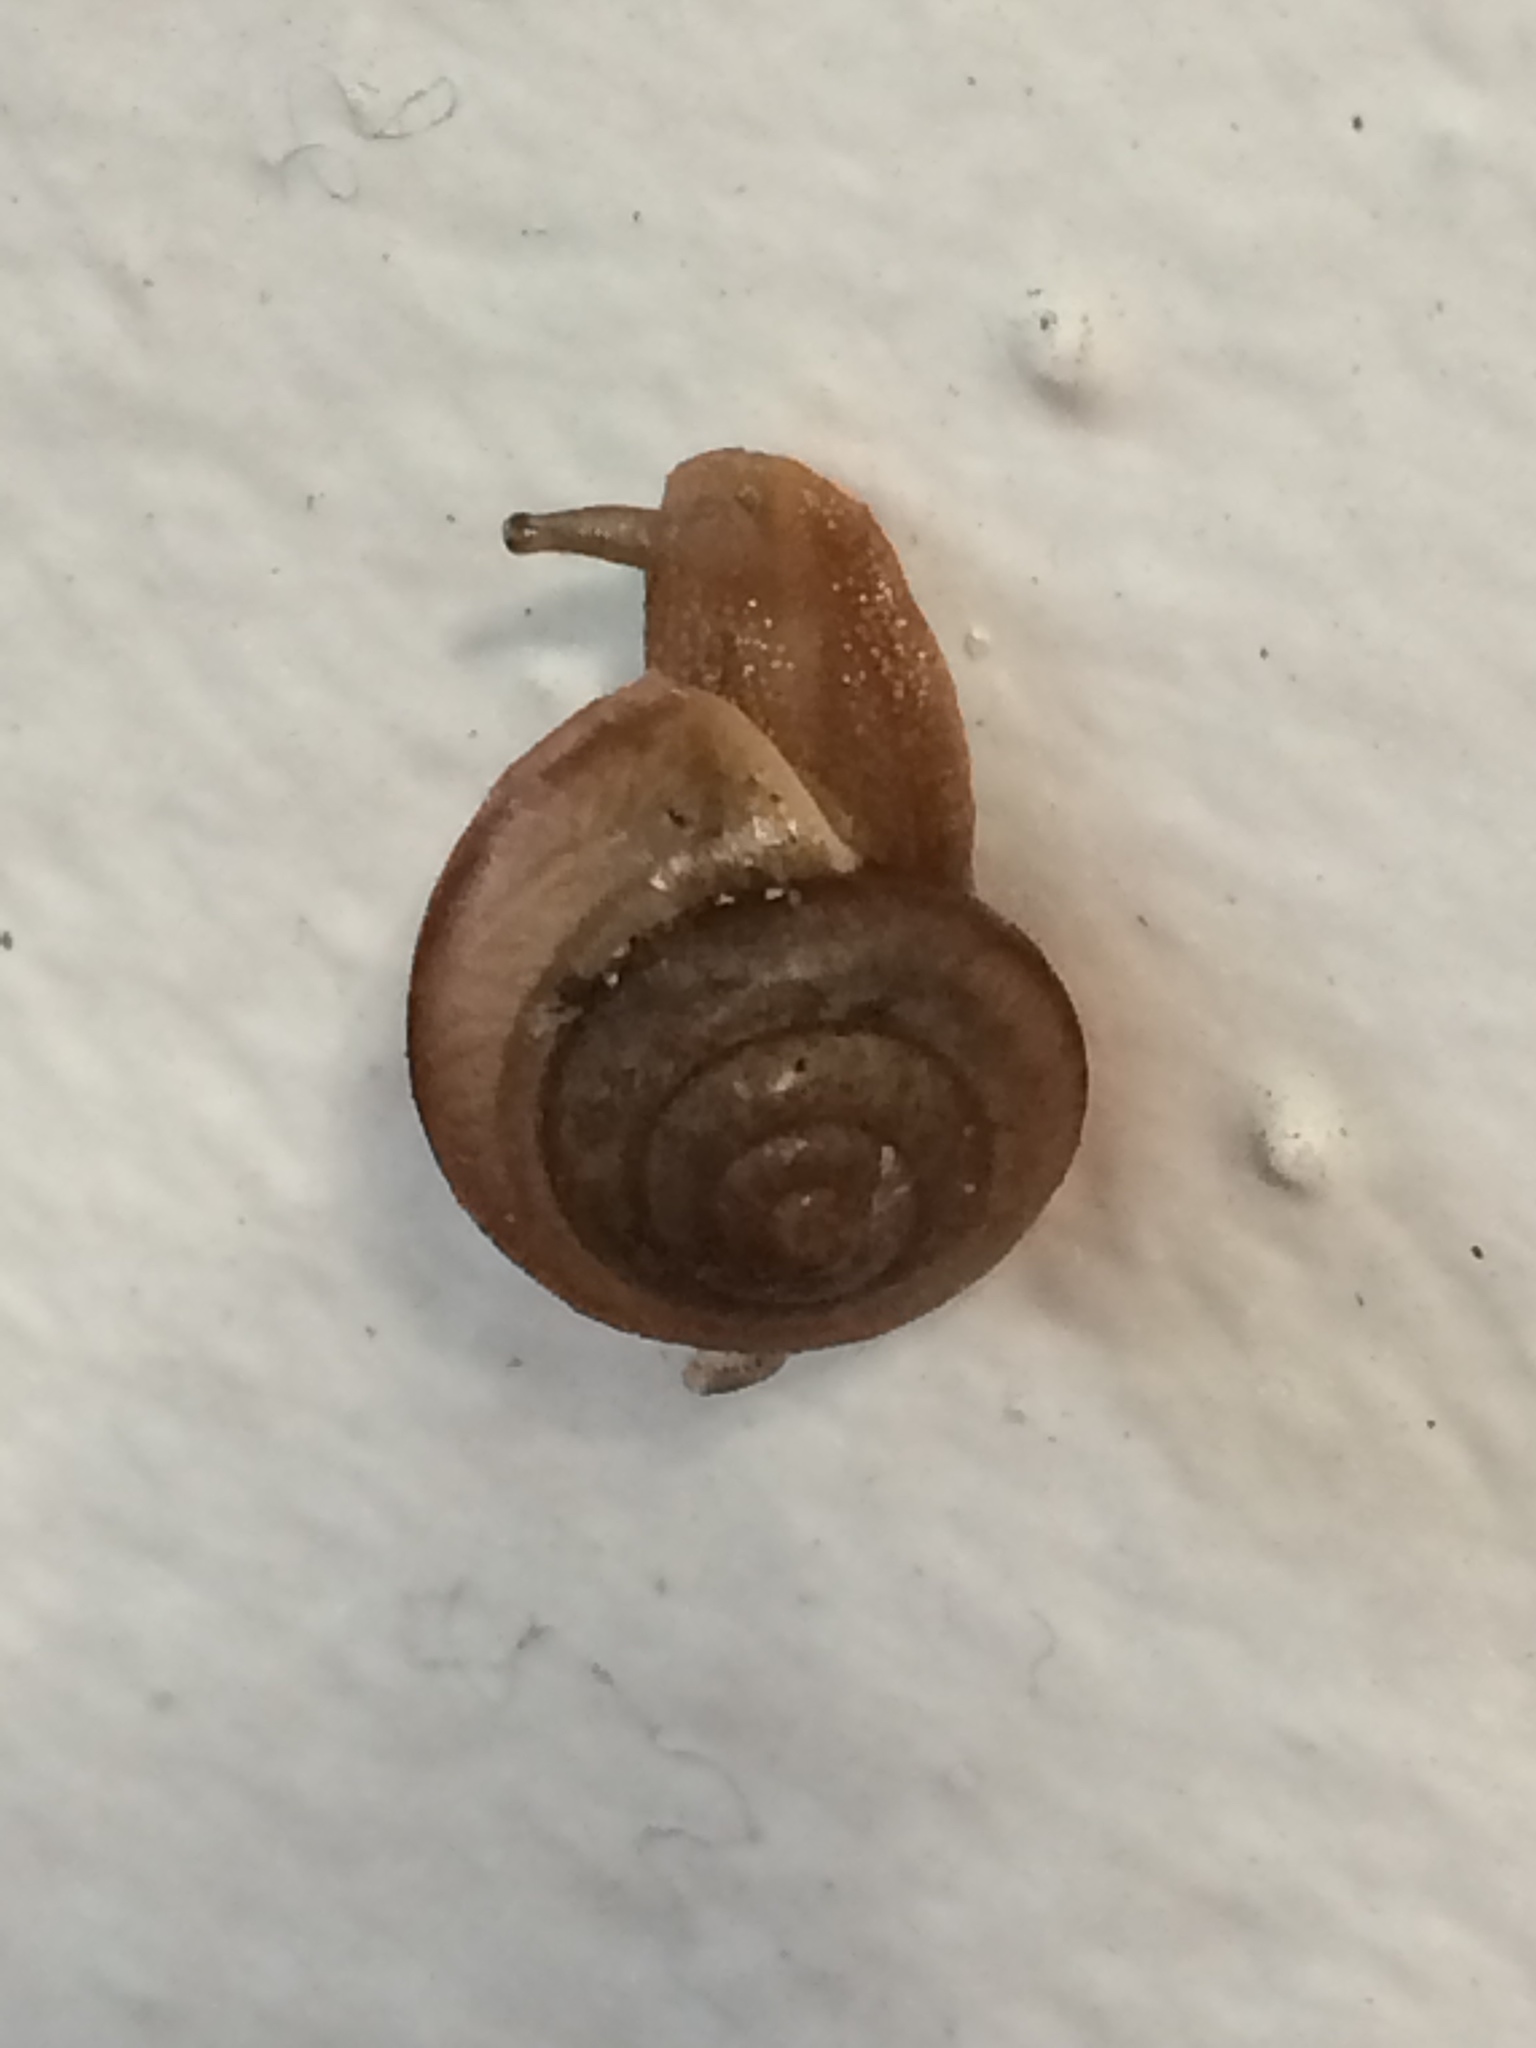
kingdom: Animalia
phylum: Mollusca
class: Gastropoda
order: Stylommatophora
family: Camaenidae
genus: Bradybaena
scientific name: Bradybaena similaris
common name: Asian trampsnail
